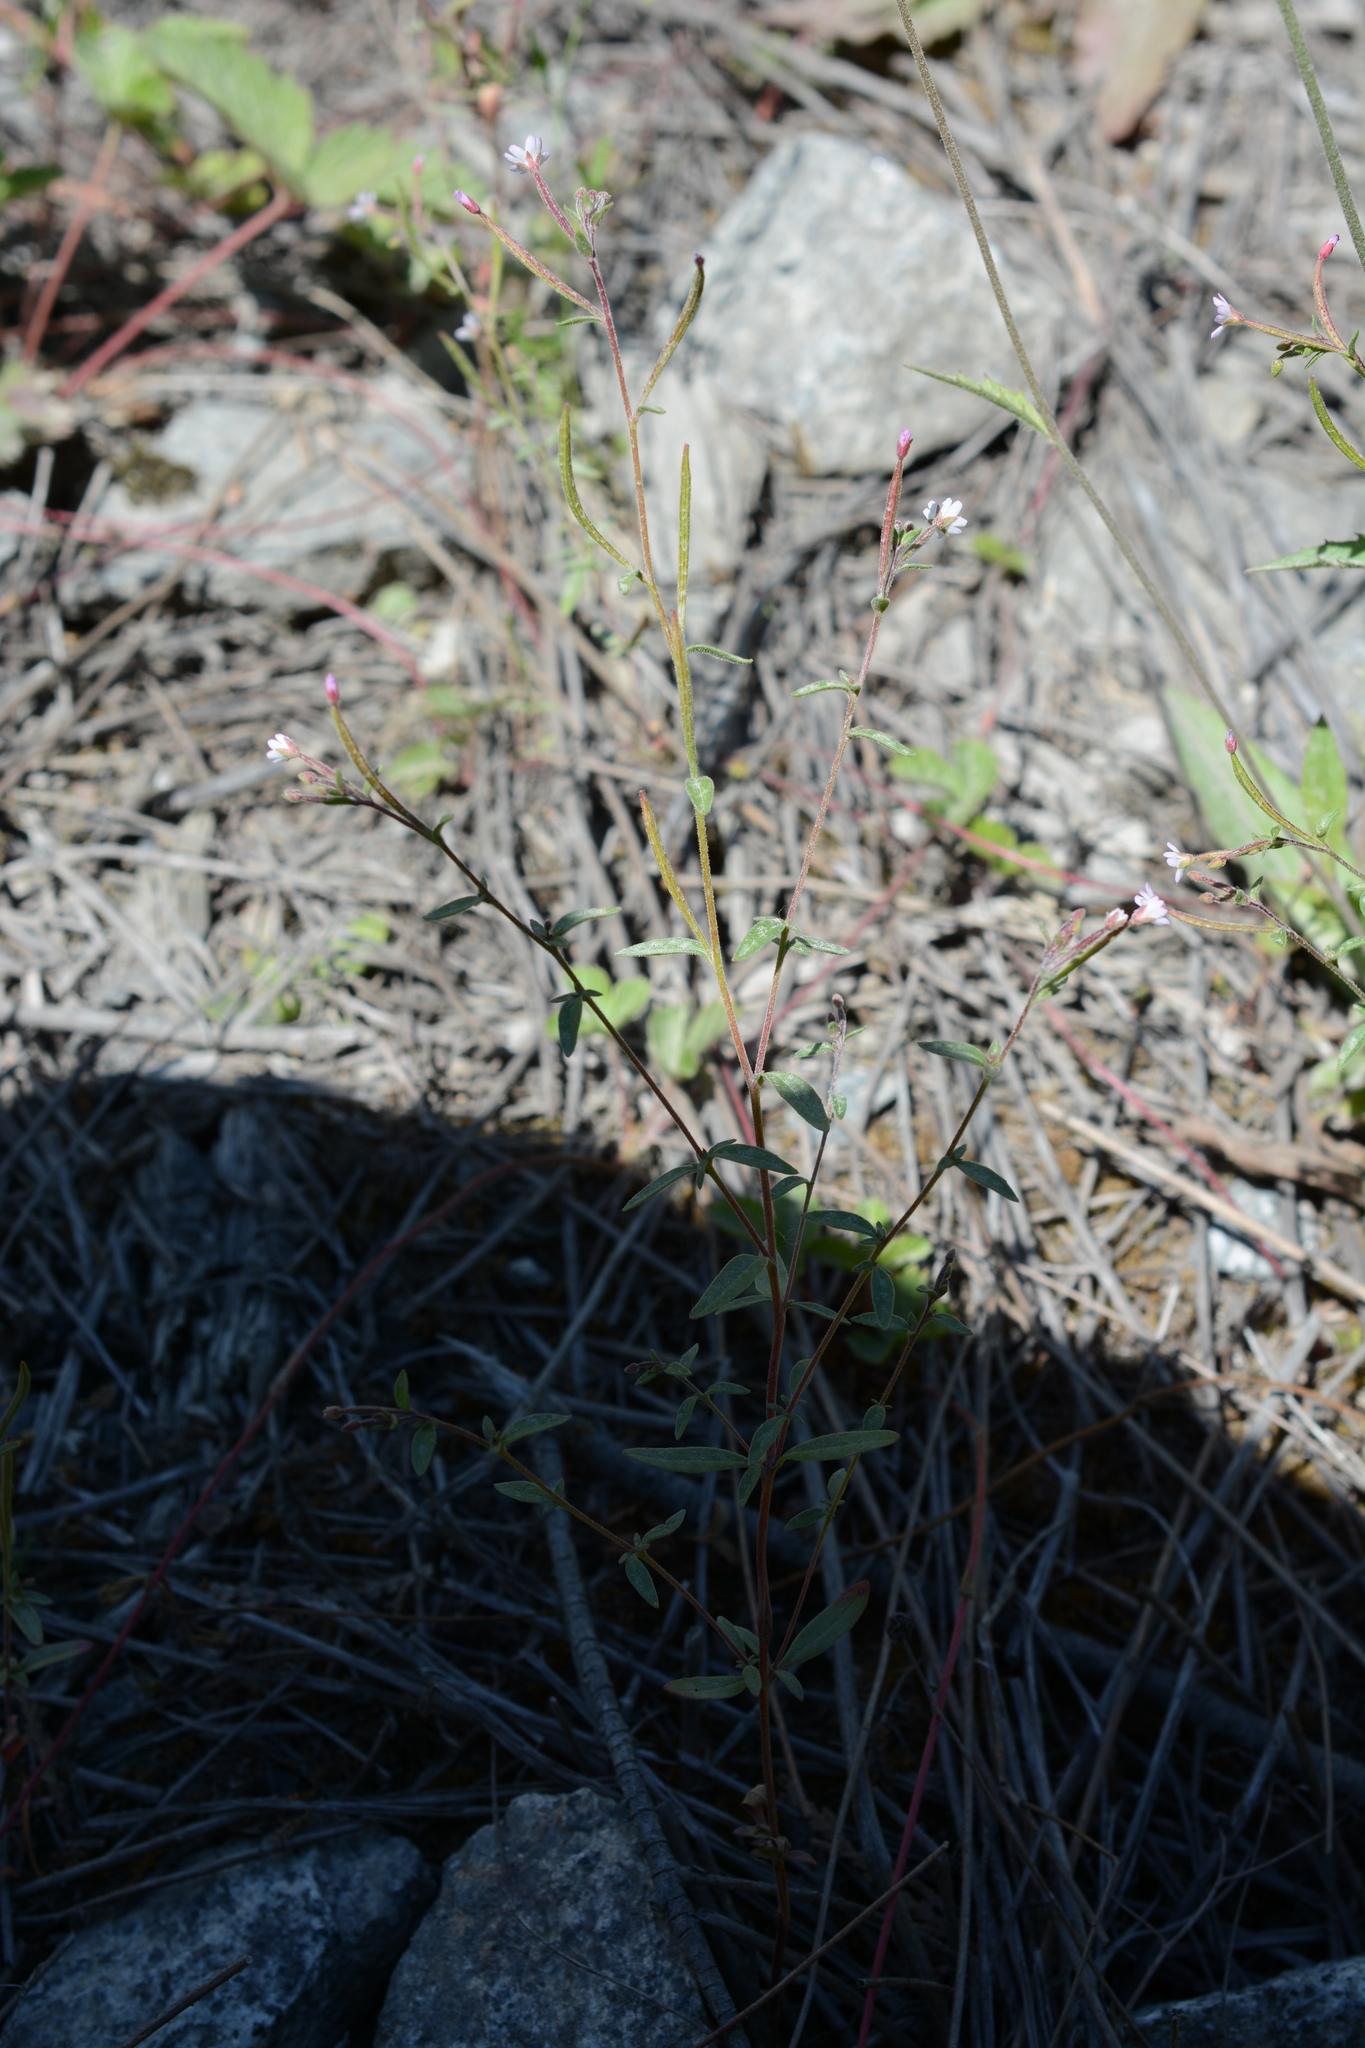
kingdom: Plantae
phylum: Tracheophyta
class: Magnoliopsida
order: Myrtales
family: Onagraceae
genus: Epilobium
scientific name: Epilobium brachycarpum
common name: Annual willowherb
